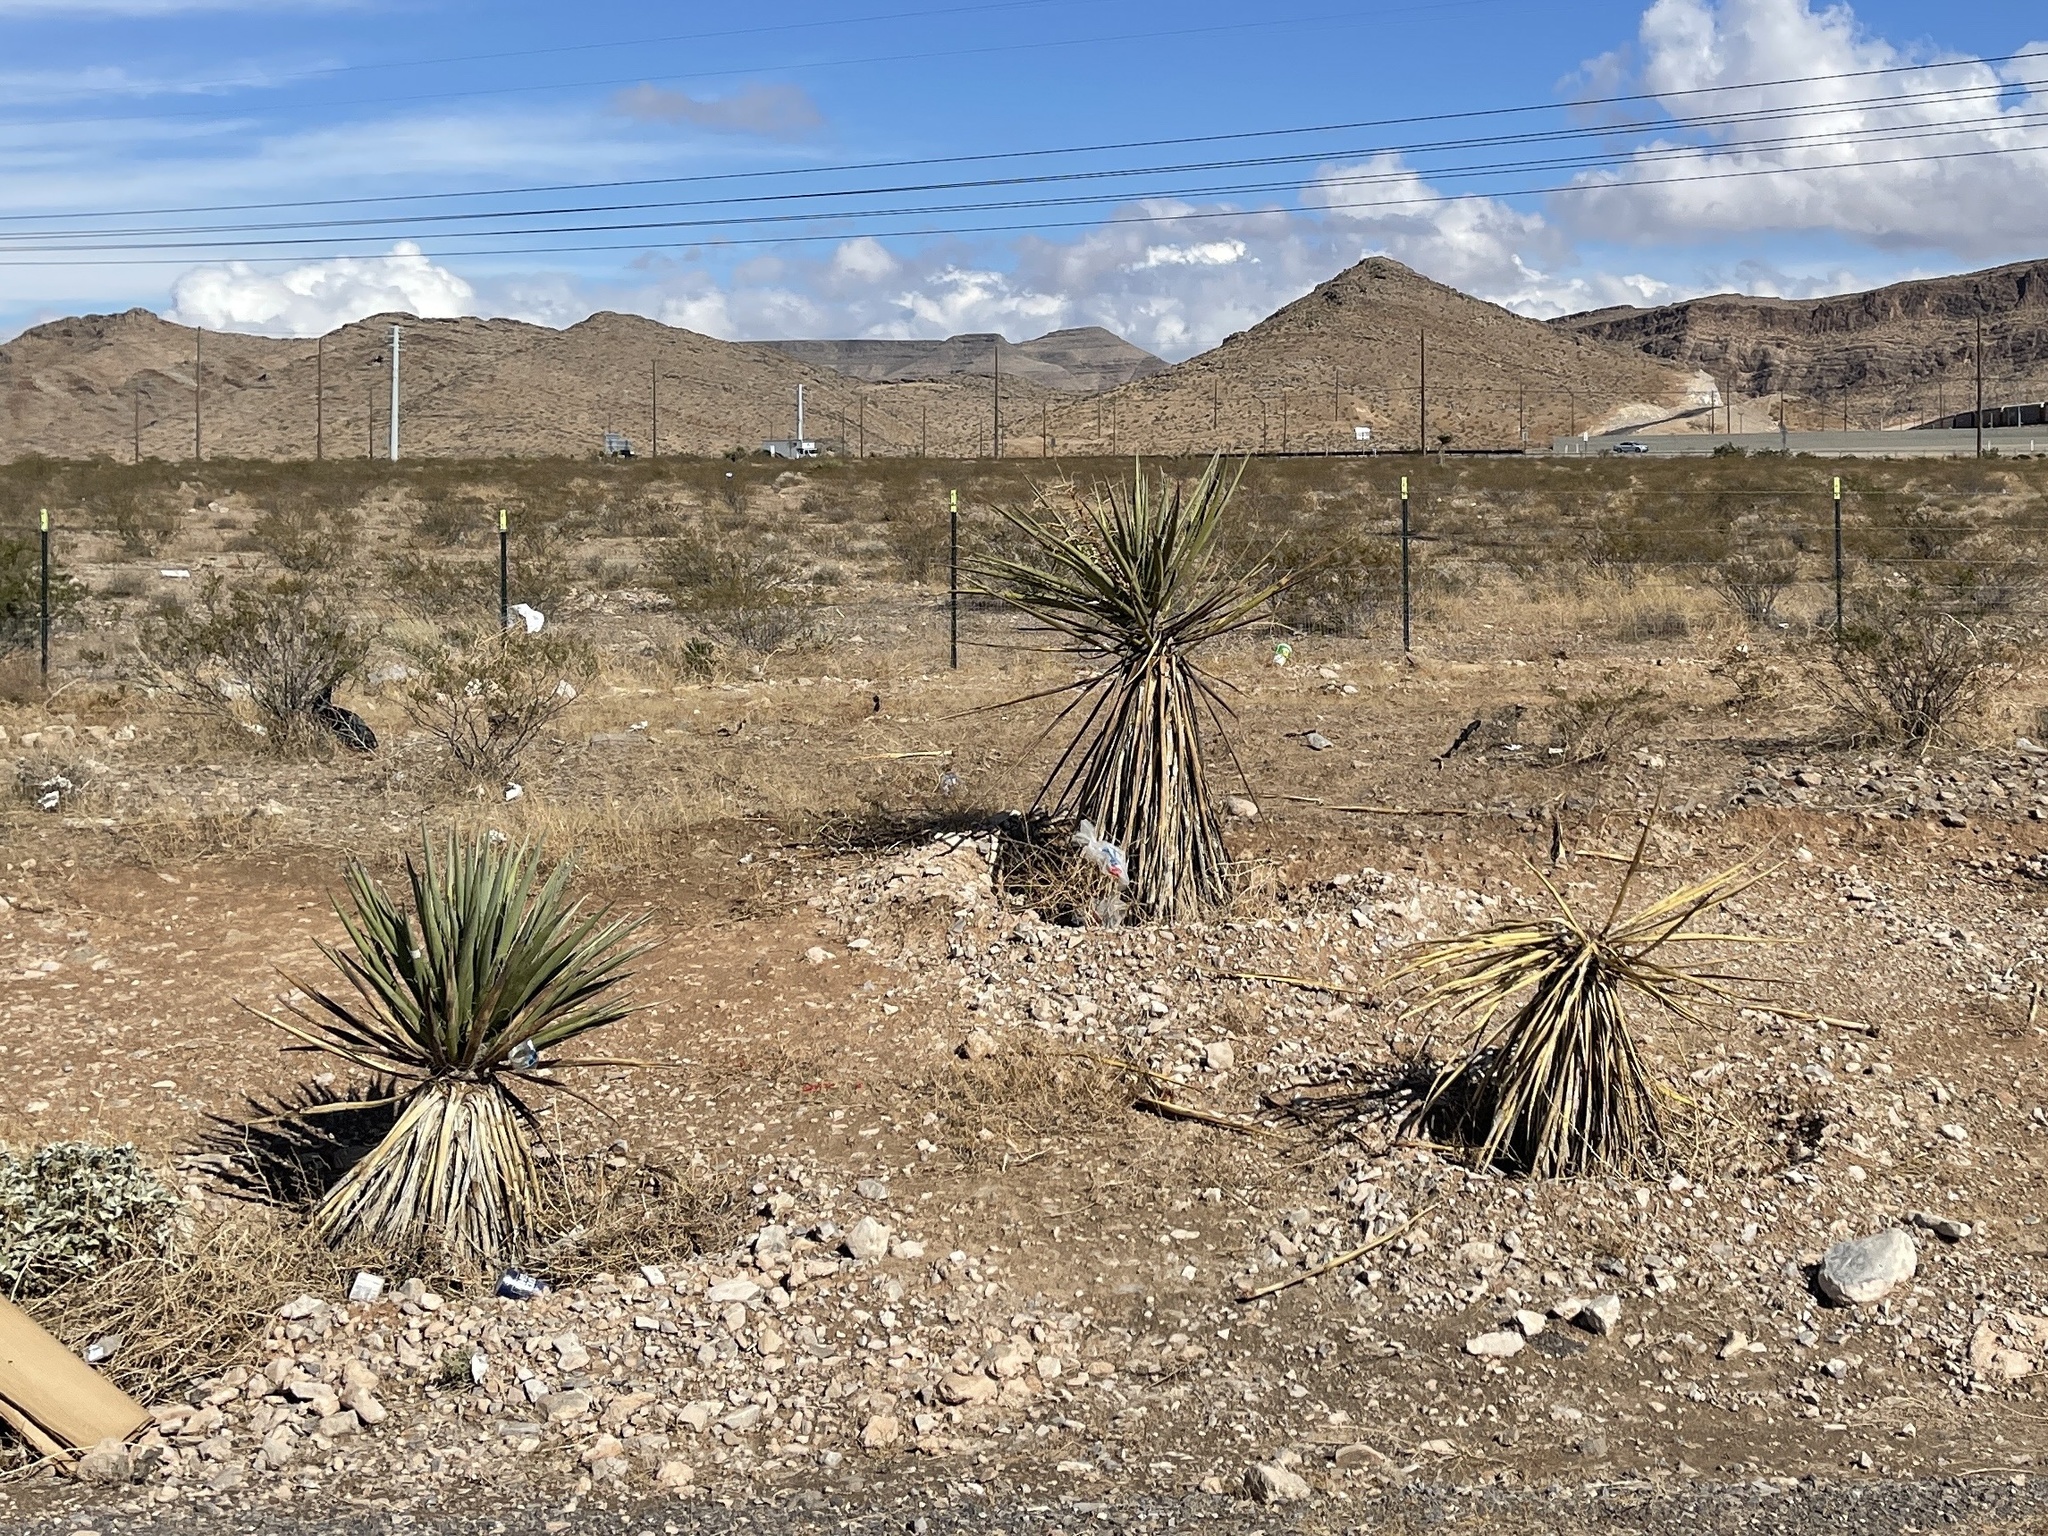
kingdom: Plantae
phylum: Tracheophyta
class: Liliopsida
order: Asparagales
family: Asparagaceae
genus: Yucca
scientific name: Yucca schidigera
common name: Mojave yucca
